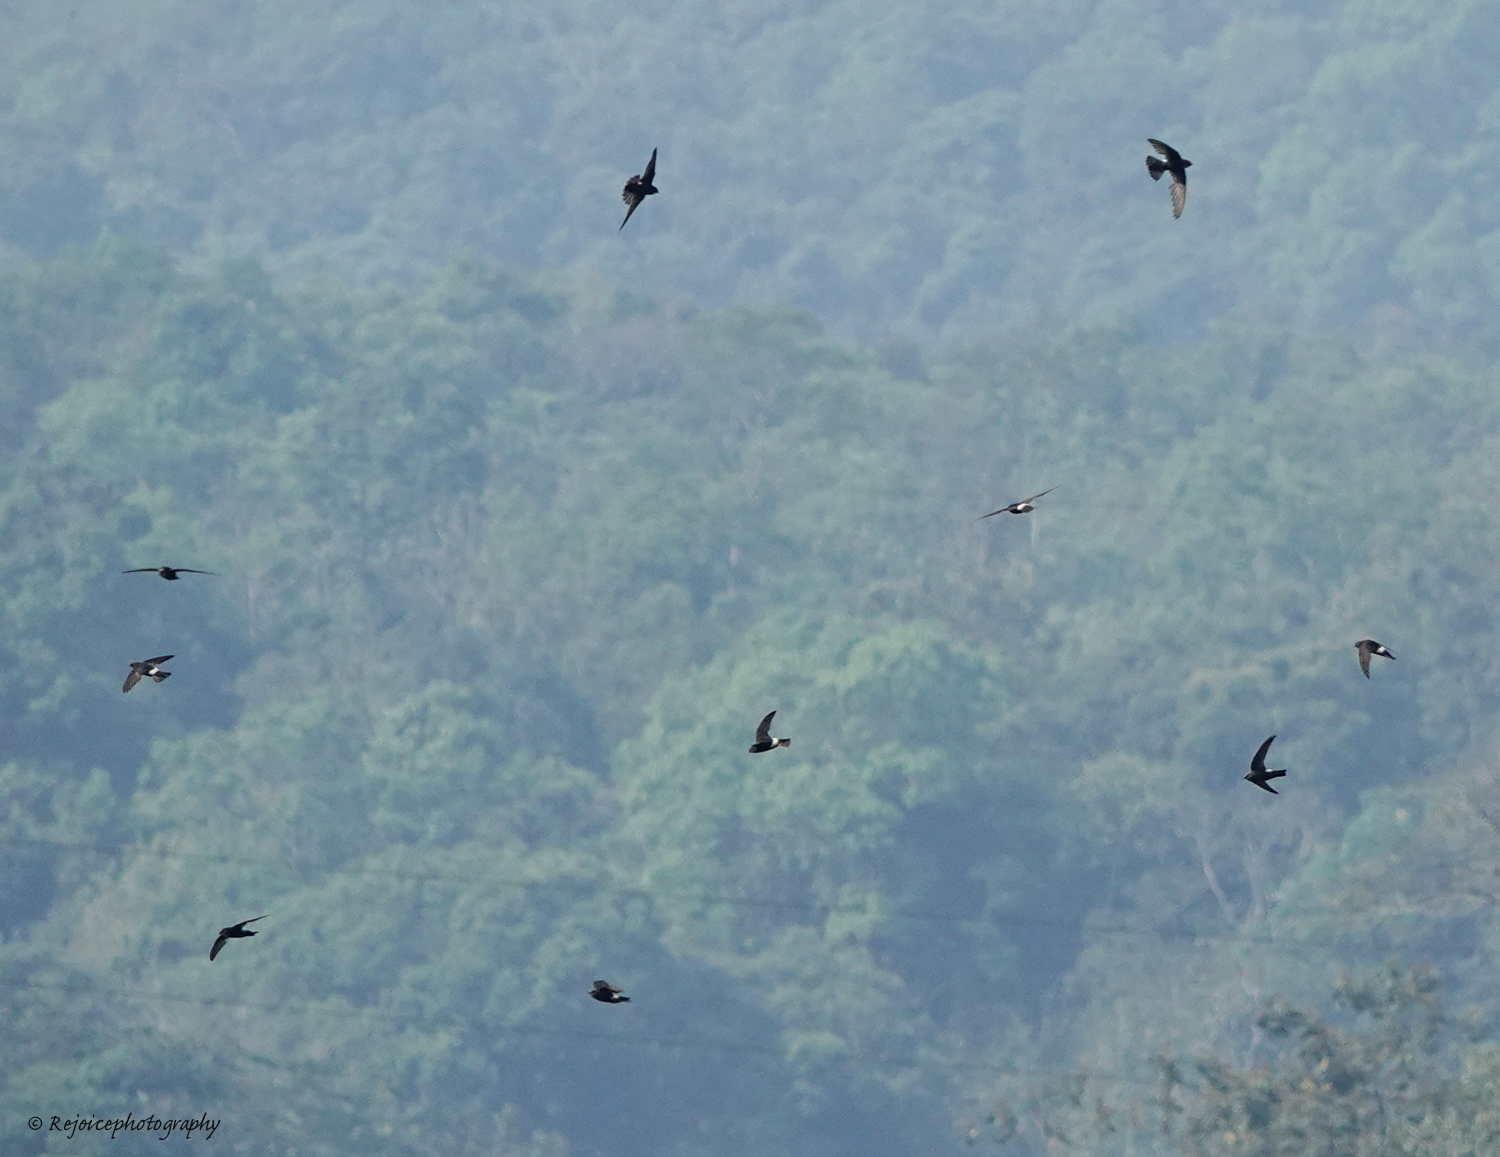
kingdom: Animalia
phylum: Chordata
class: Aves
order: Apodiformes
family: Apodidae
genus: Apus
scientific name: Apus nipalensis
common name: House swift
